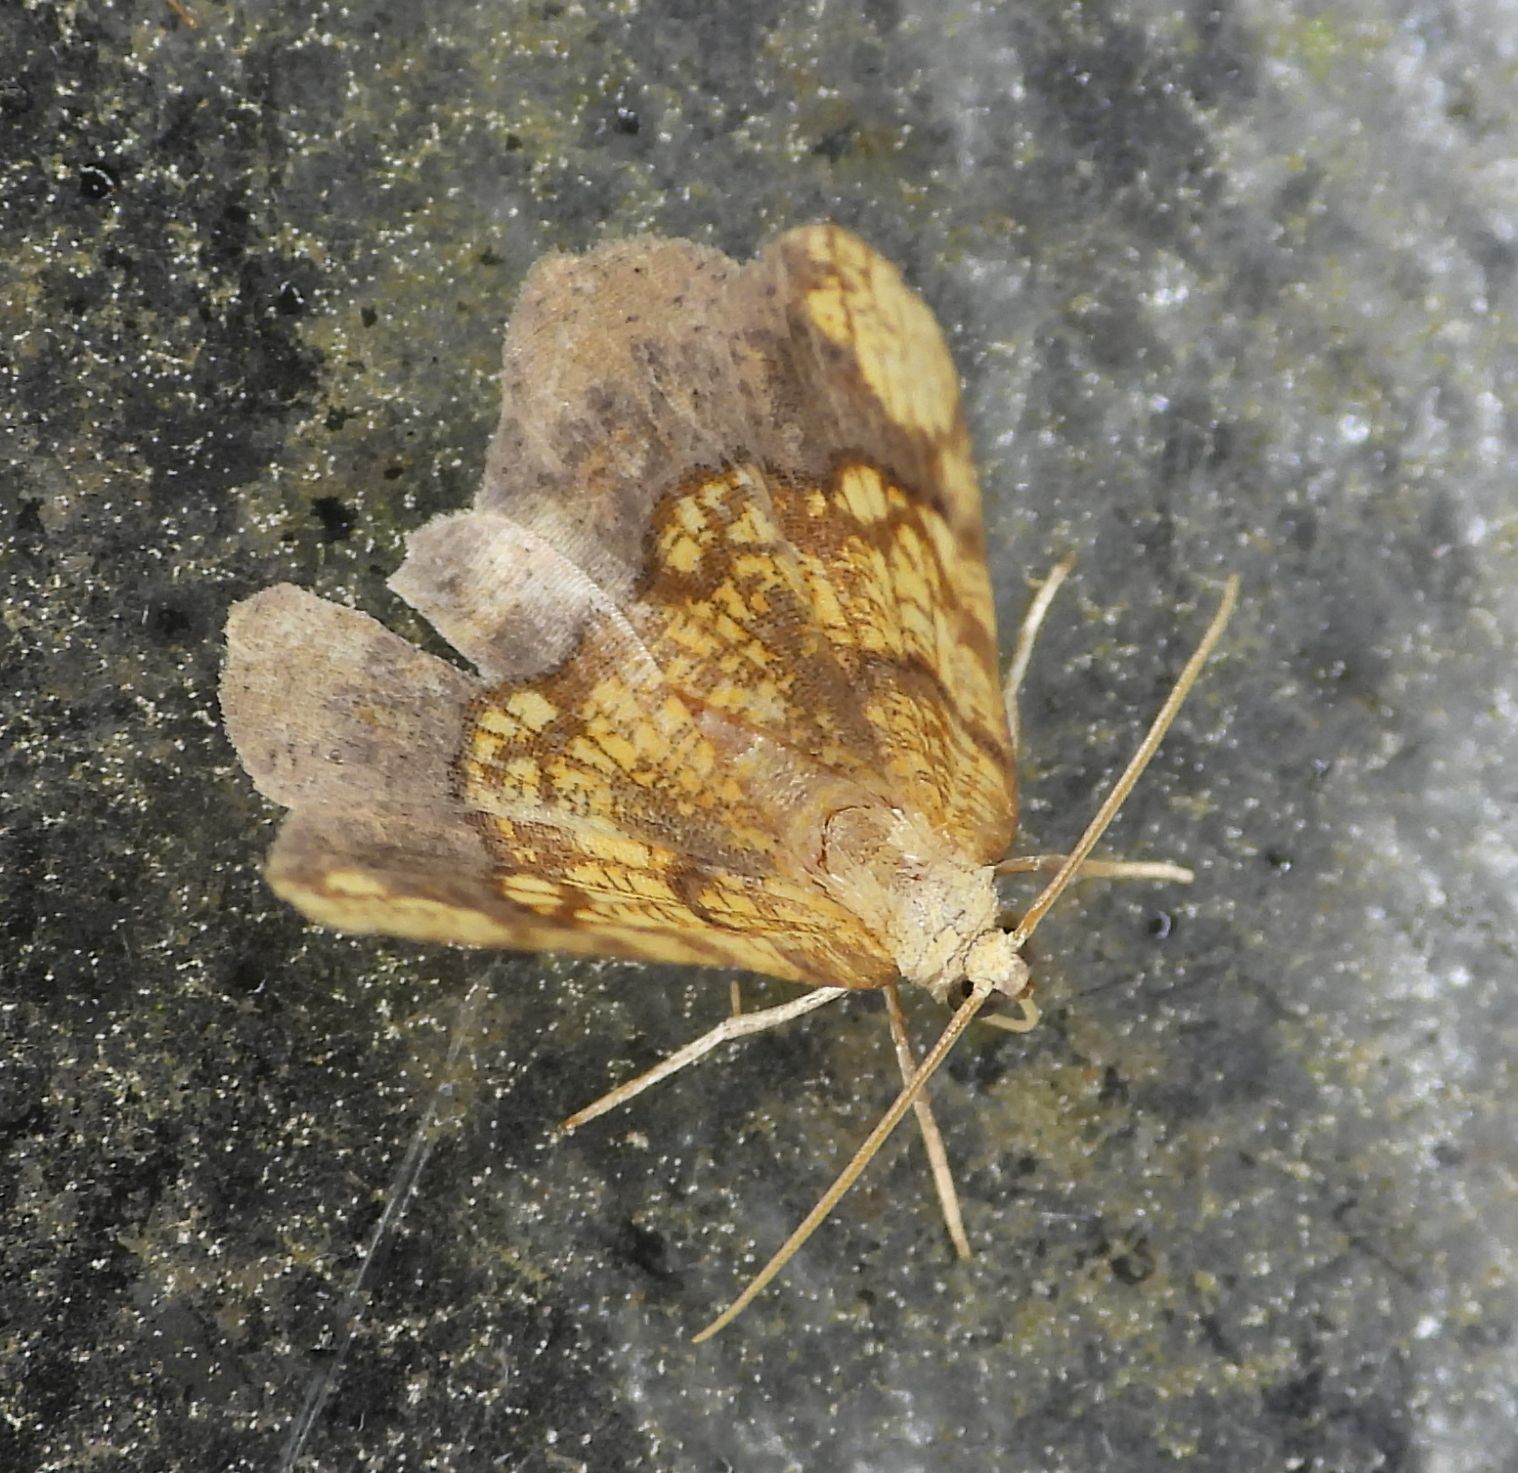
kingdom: Animalia
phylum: Arthropoda
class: Insecta
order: Lepidoptera
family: Geometridae
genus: Nematocampa
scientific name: Nematocampa resistaria
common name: Horned spanworm moth
